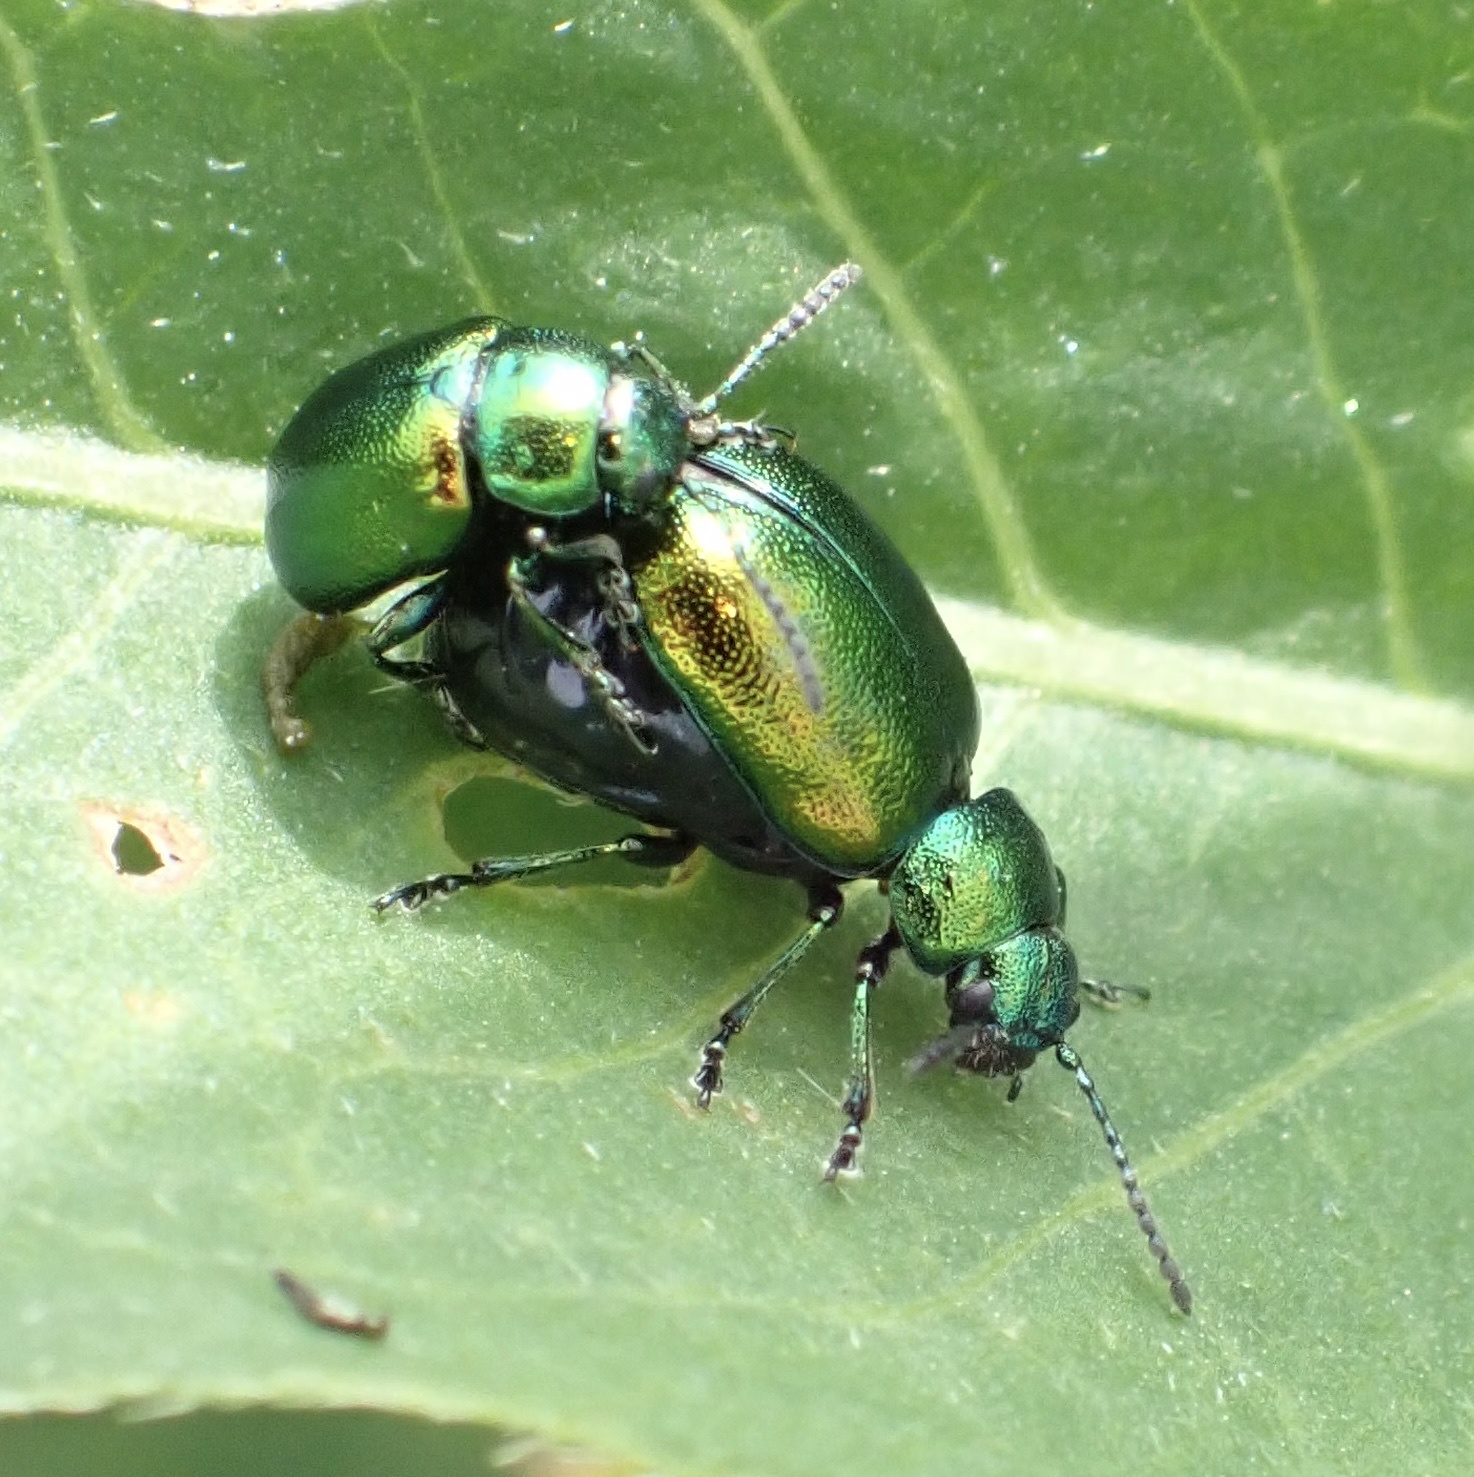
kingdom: Animalia
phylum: Arthropoda
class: Insecta
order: Coleoptera
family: Chrysomelidae
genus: Gastrophysa
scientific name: Gastrophysa viridula
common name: Green dock beetle
